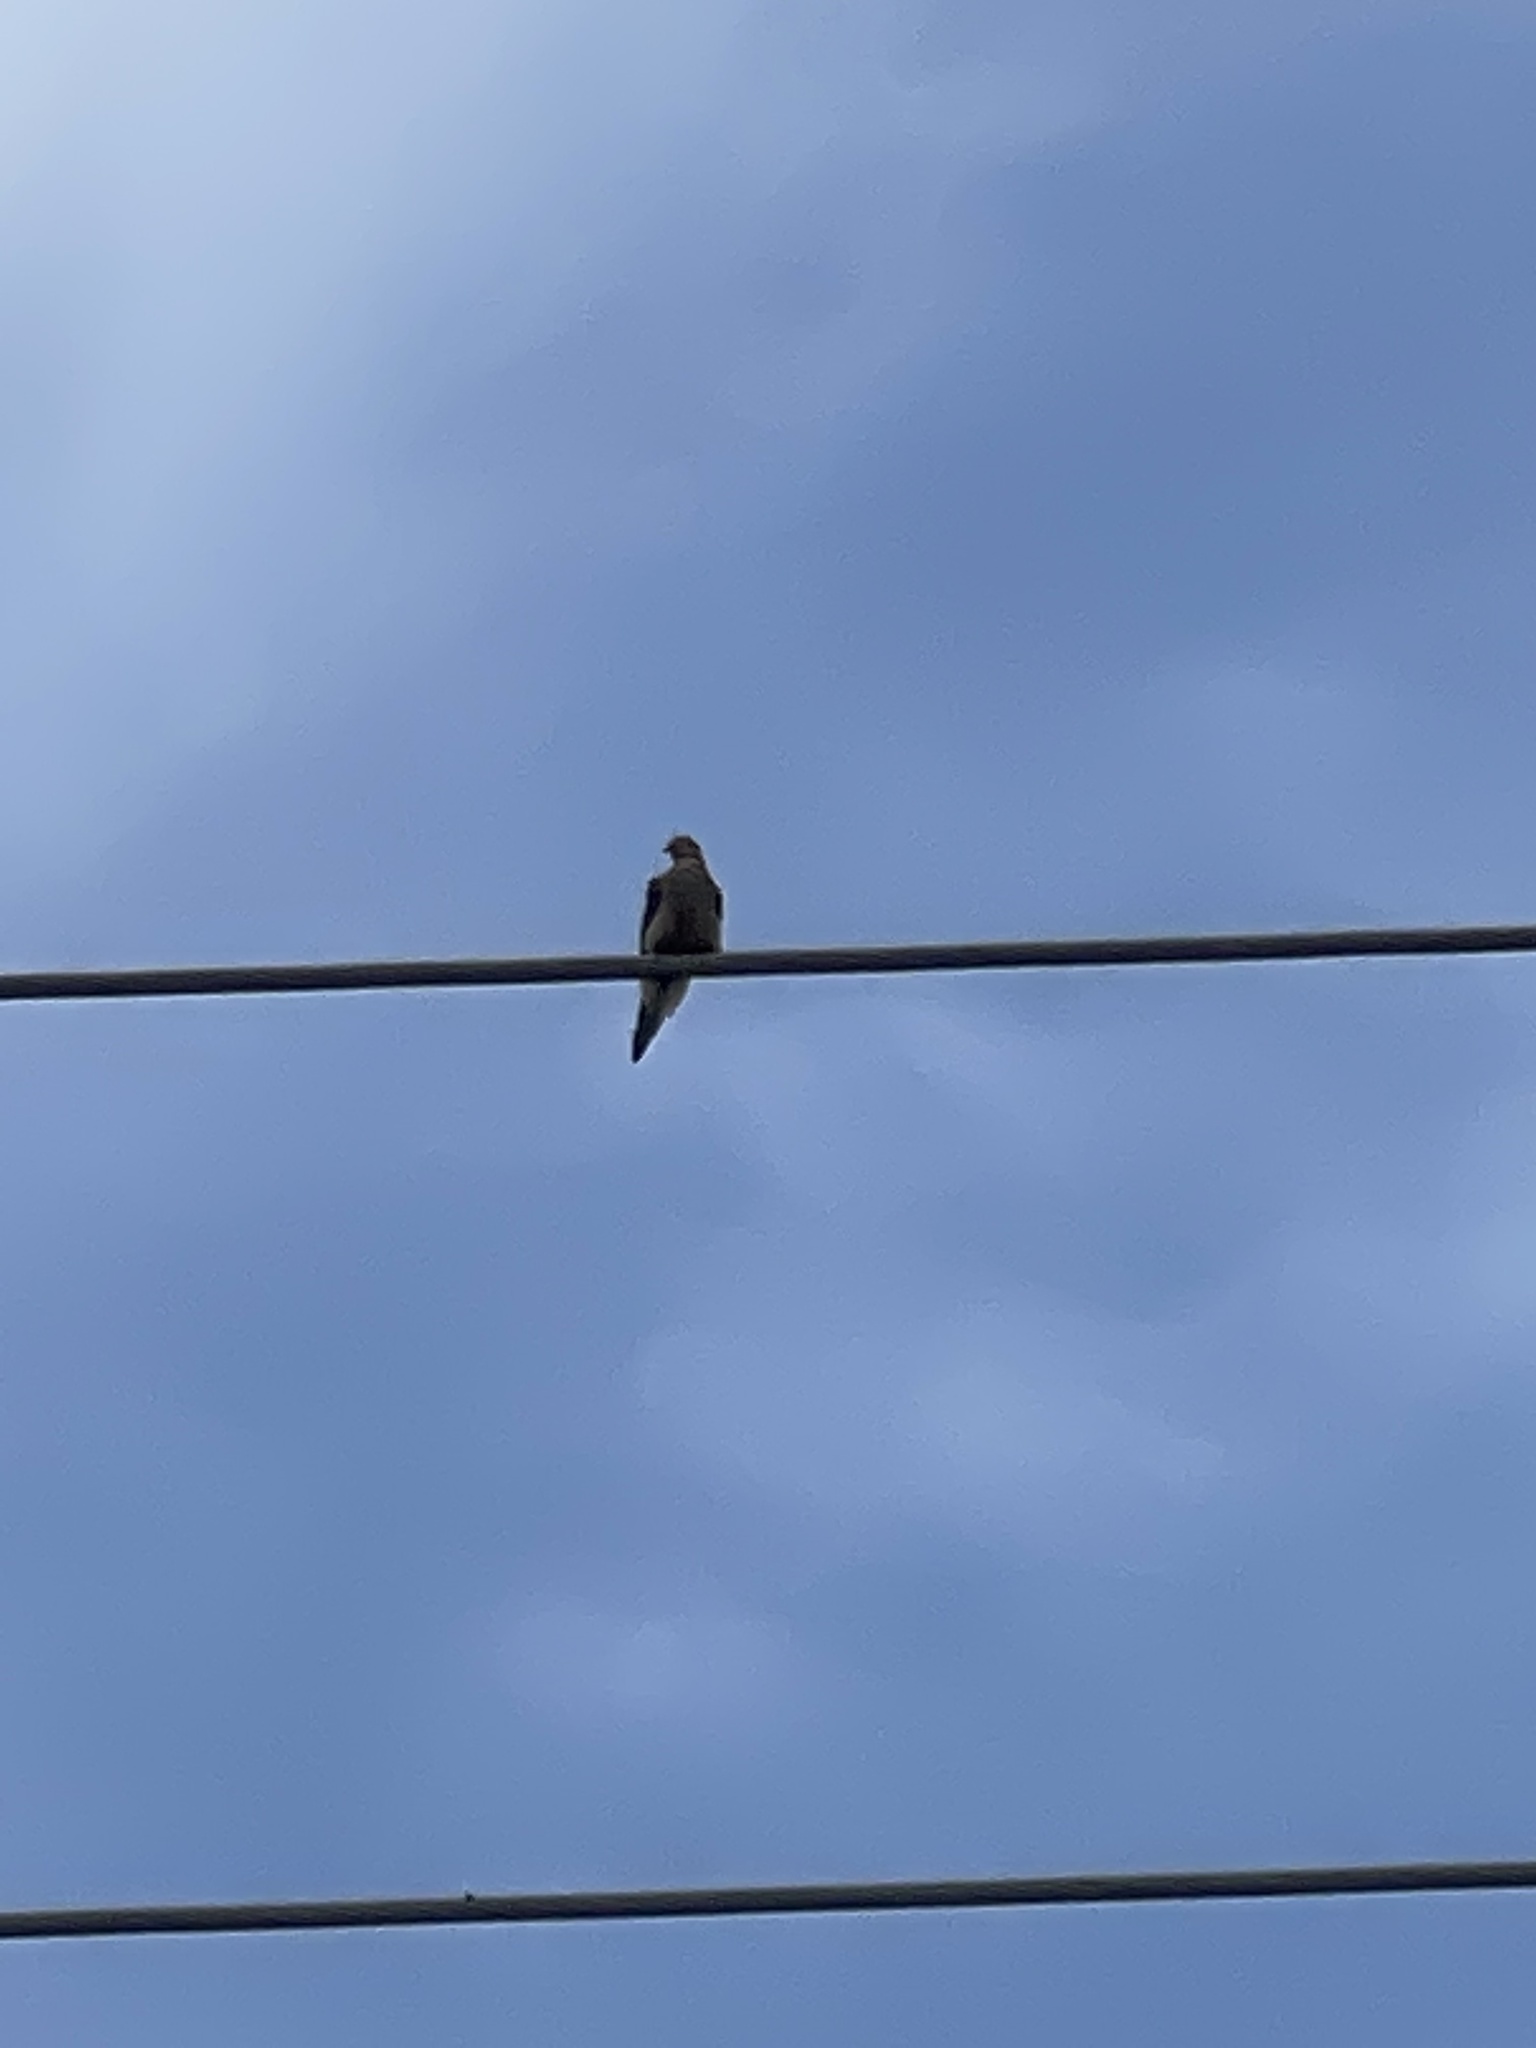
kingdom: Animalia
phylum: Chordata
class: Aves
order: Columbiformes
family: Columbidae
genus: Zenaida
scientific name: Zenaida macroura
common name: Mourning dove
